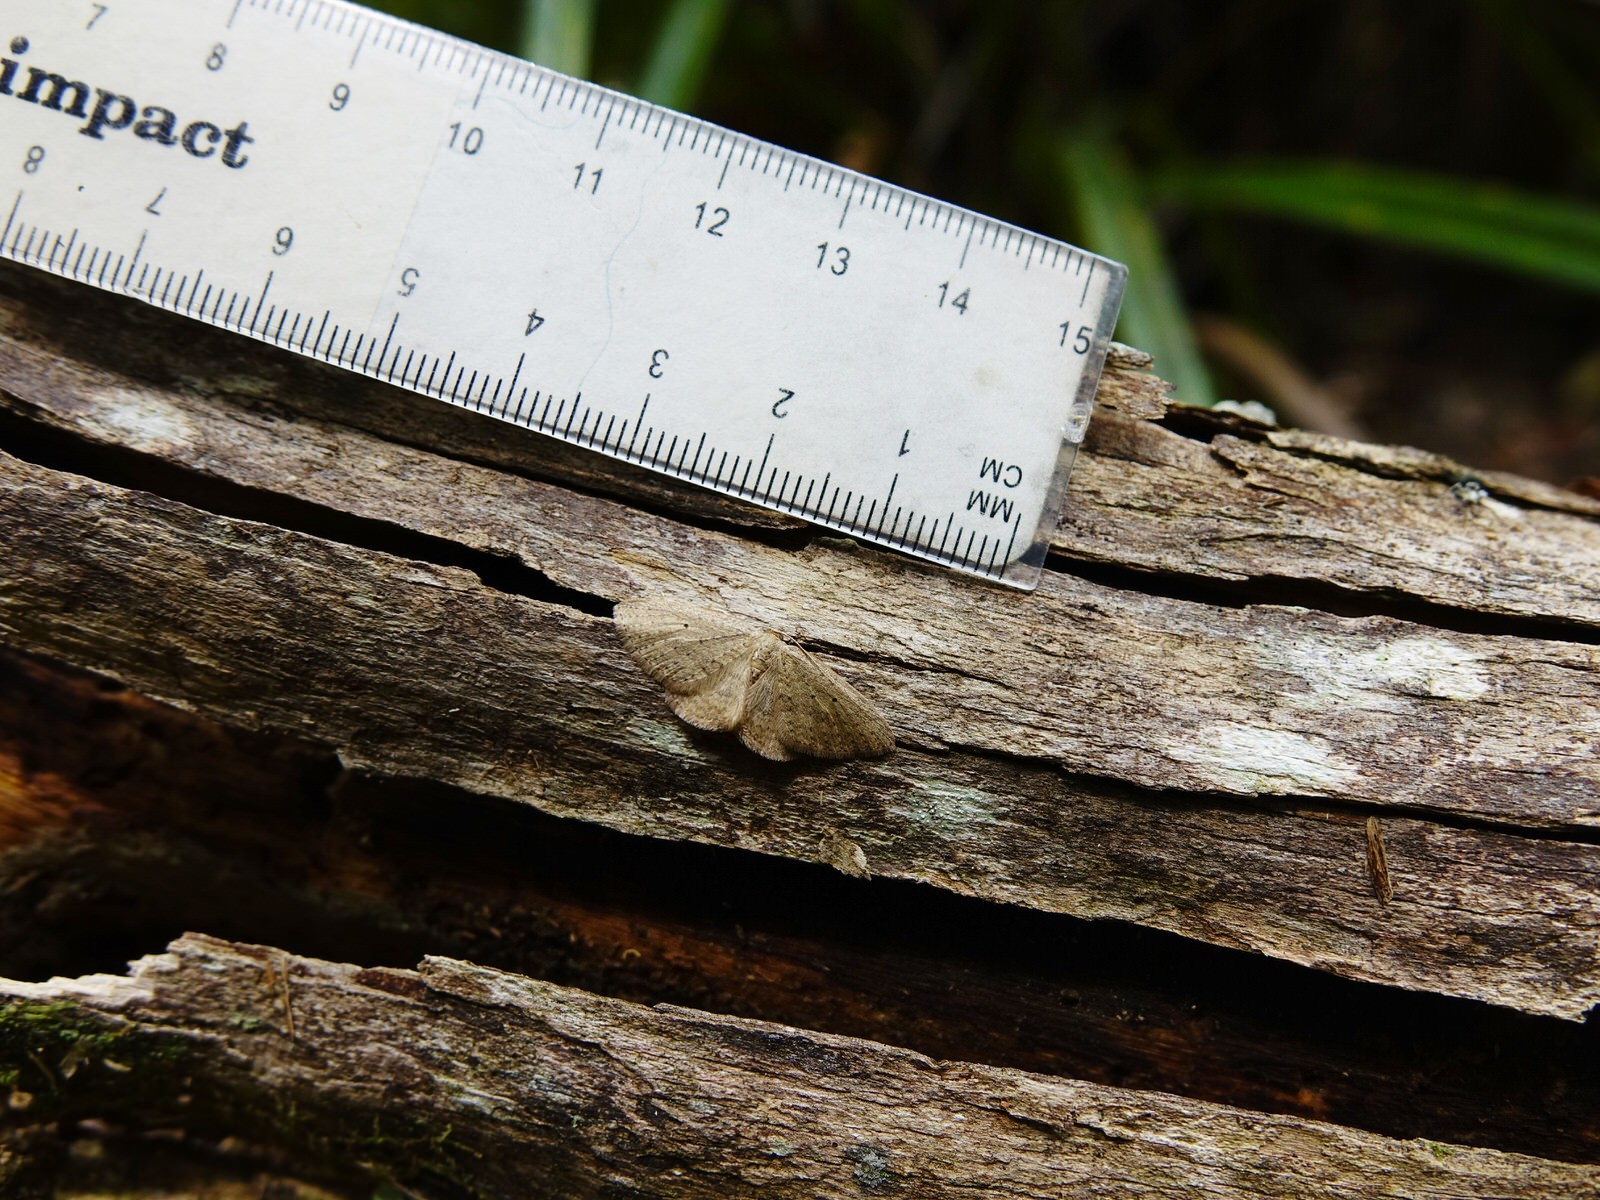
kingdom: Animalia
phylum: Arthropoda
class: Insecta
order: Lepidoptera
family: Geometridae
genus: Poecilasthena
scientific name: Poecilasthena schistaria
